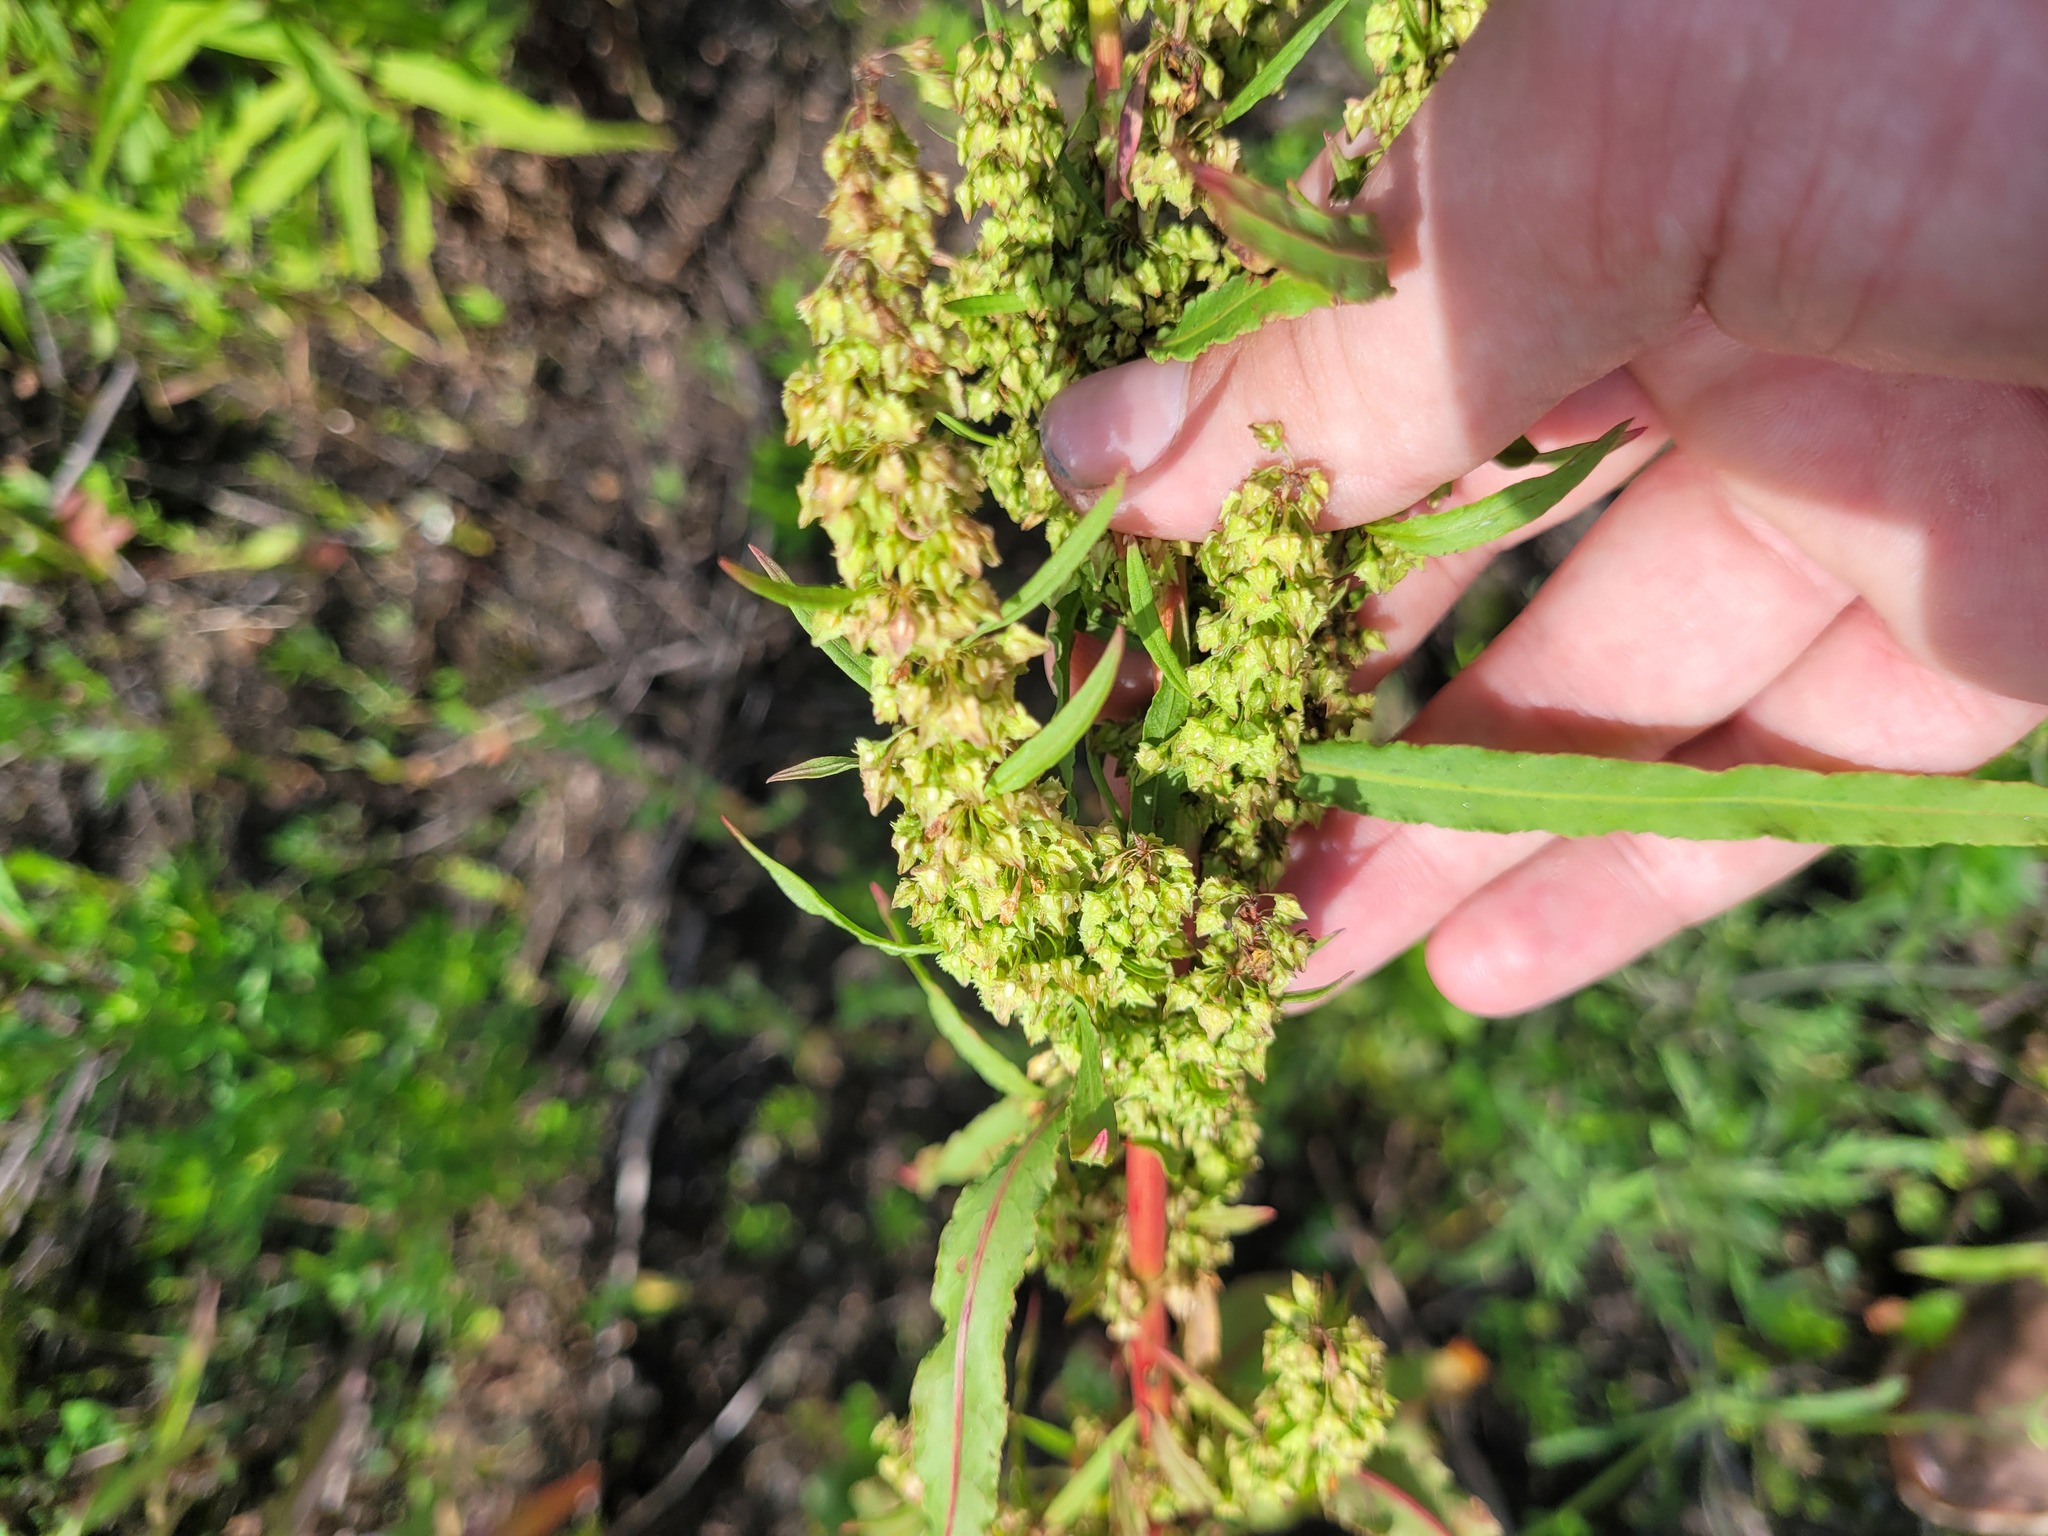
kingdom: Plantae
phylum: Tracheophyta
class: Magnoliopsida
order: Caryophyllales
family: Polygonaceae
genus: Rumex
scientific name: Rumex stenophyllus
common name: Narrowleaf dock
